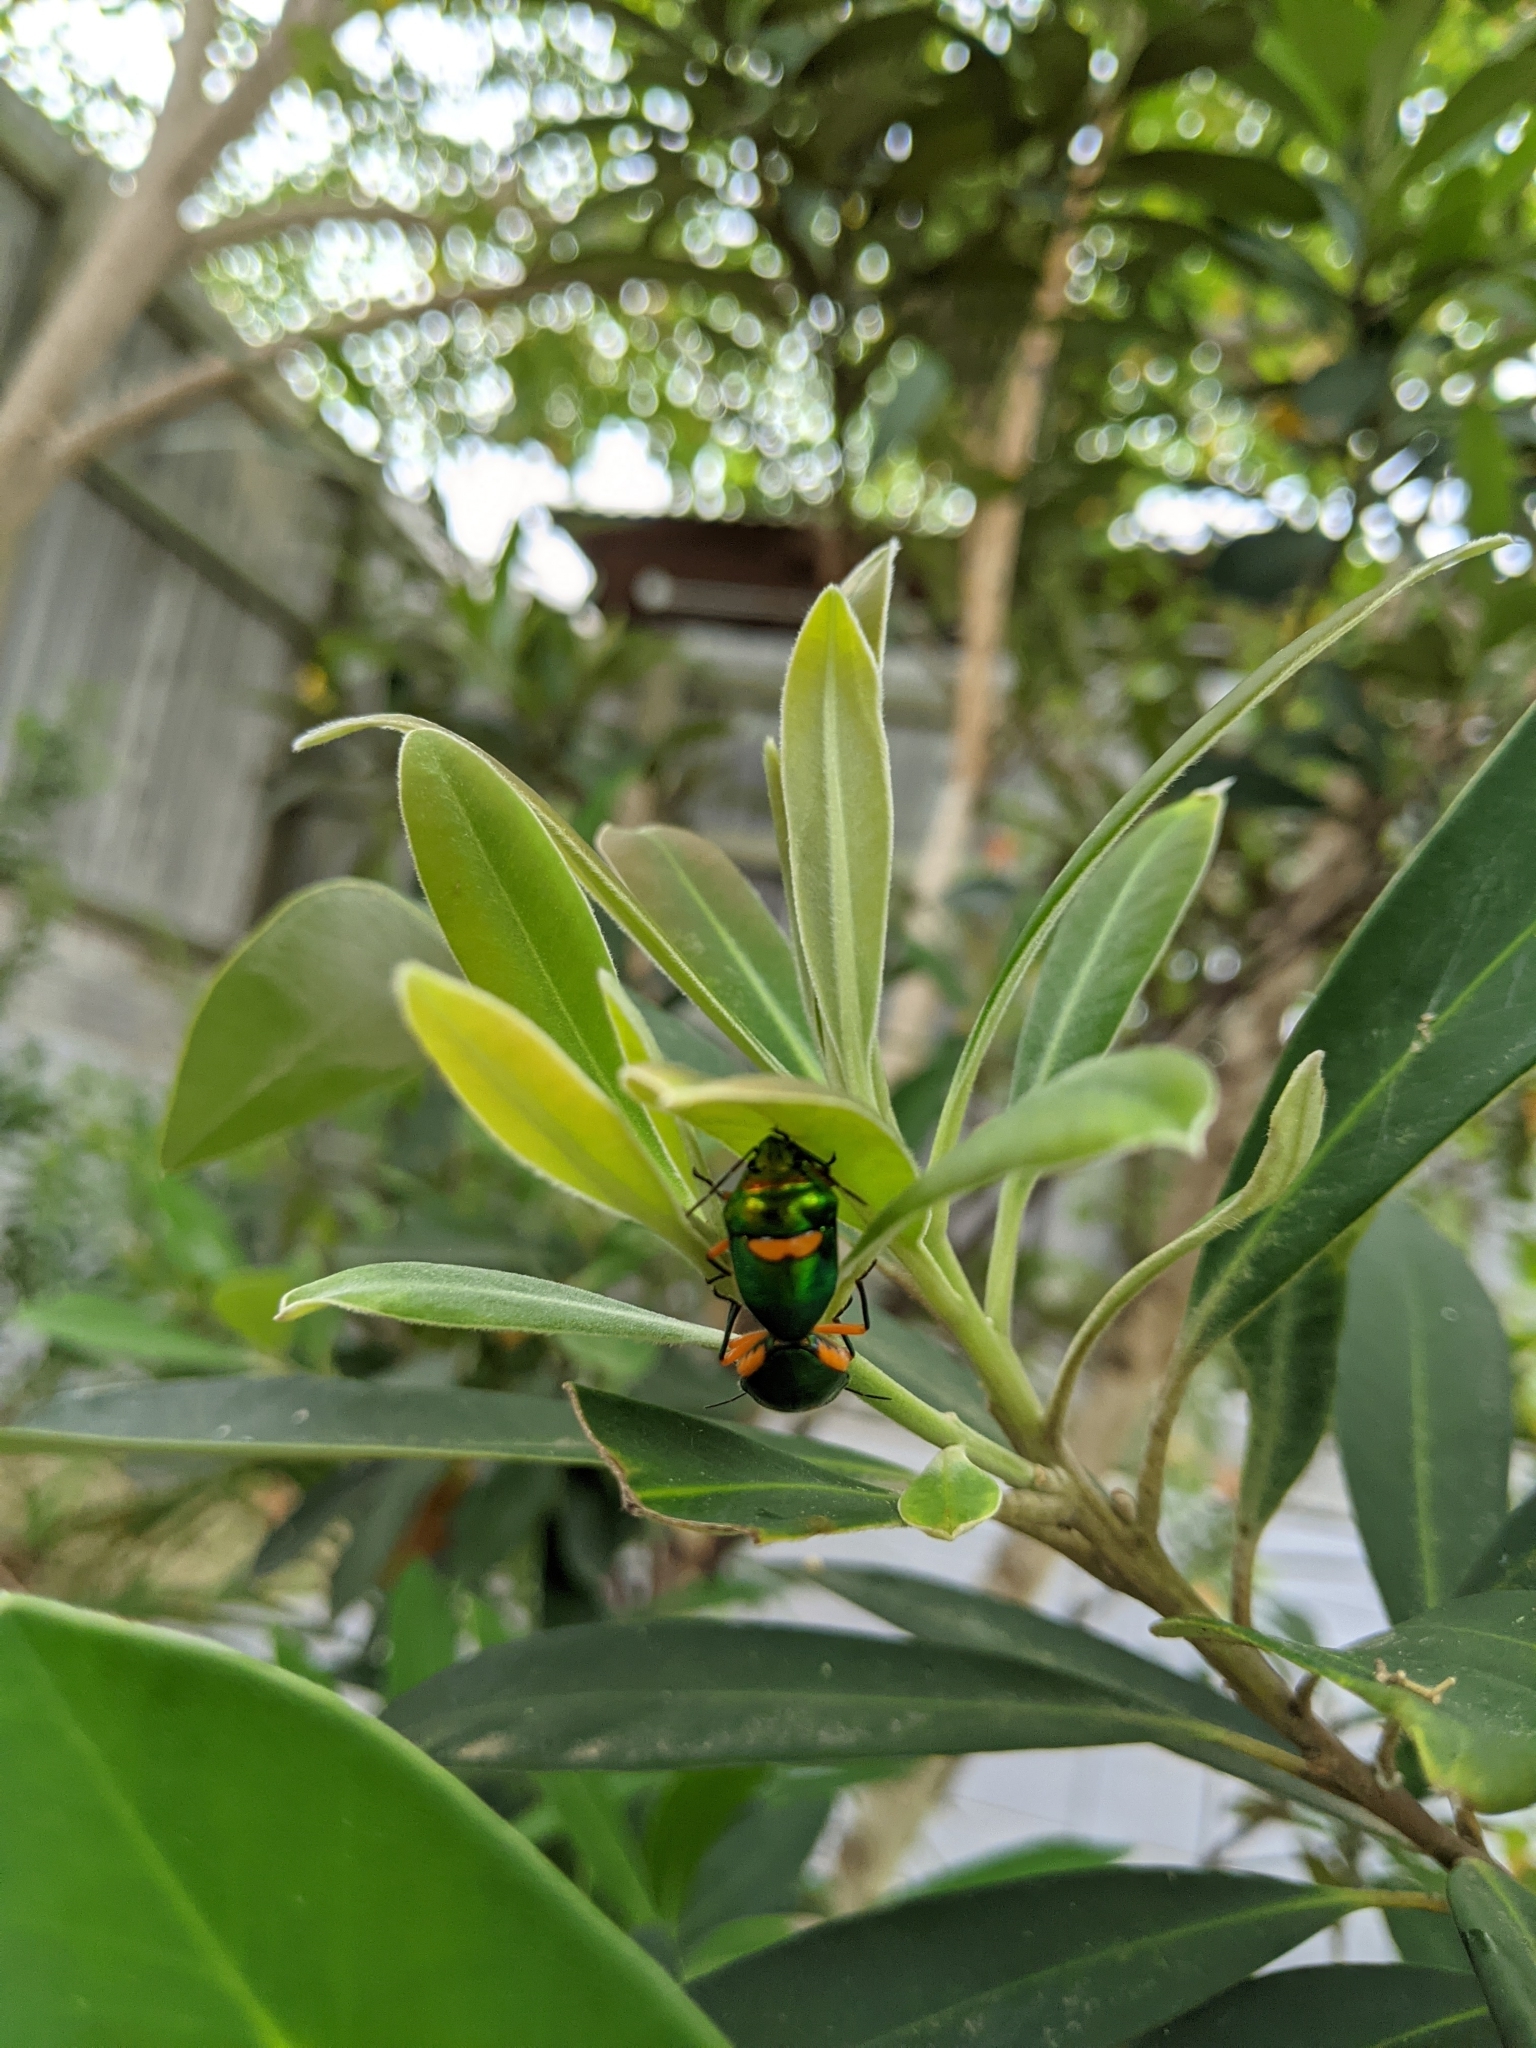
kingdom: Animalia
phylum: Arthropoda
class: Insecta
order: Hemiptera
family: Scutelleridae
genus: Lampromicra
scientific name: Lampromicra senator
